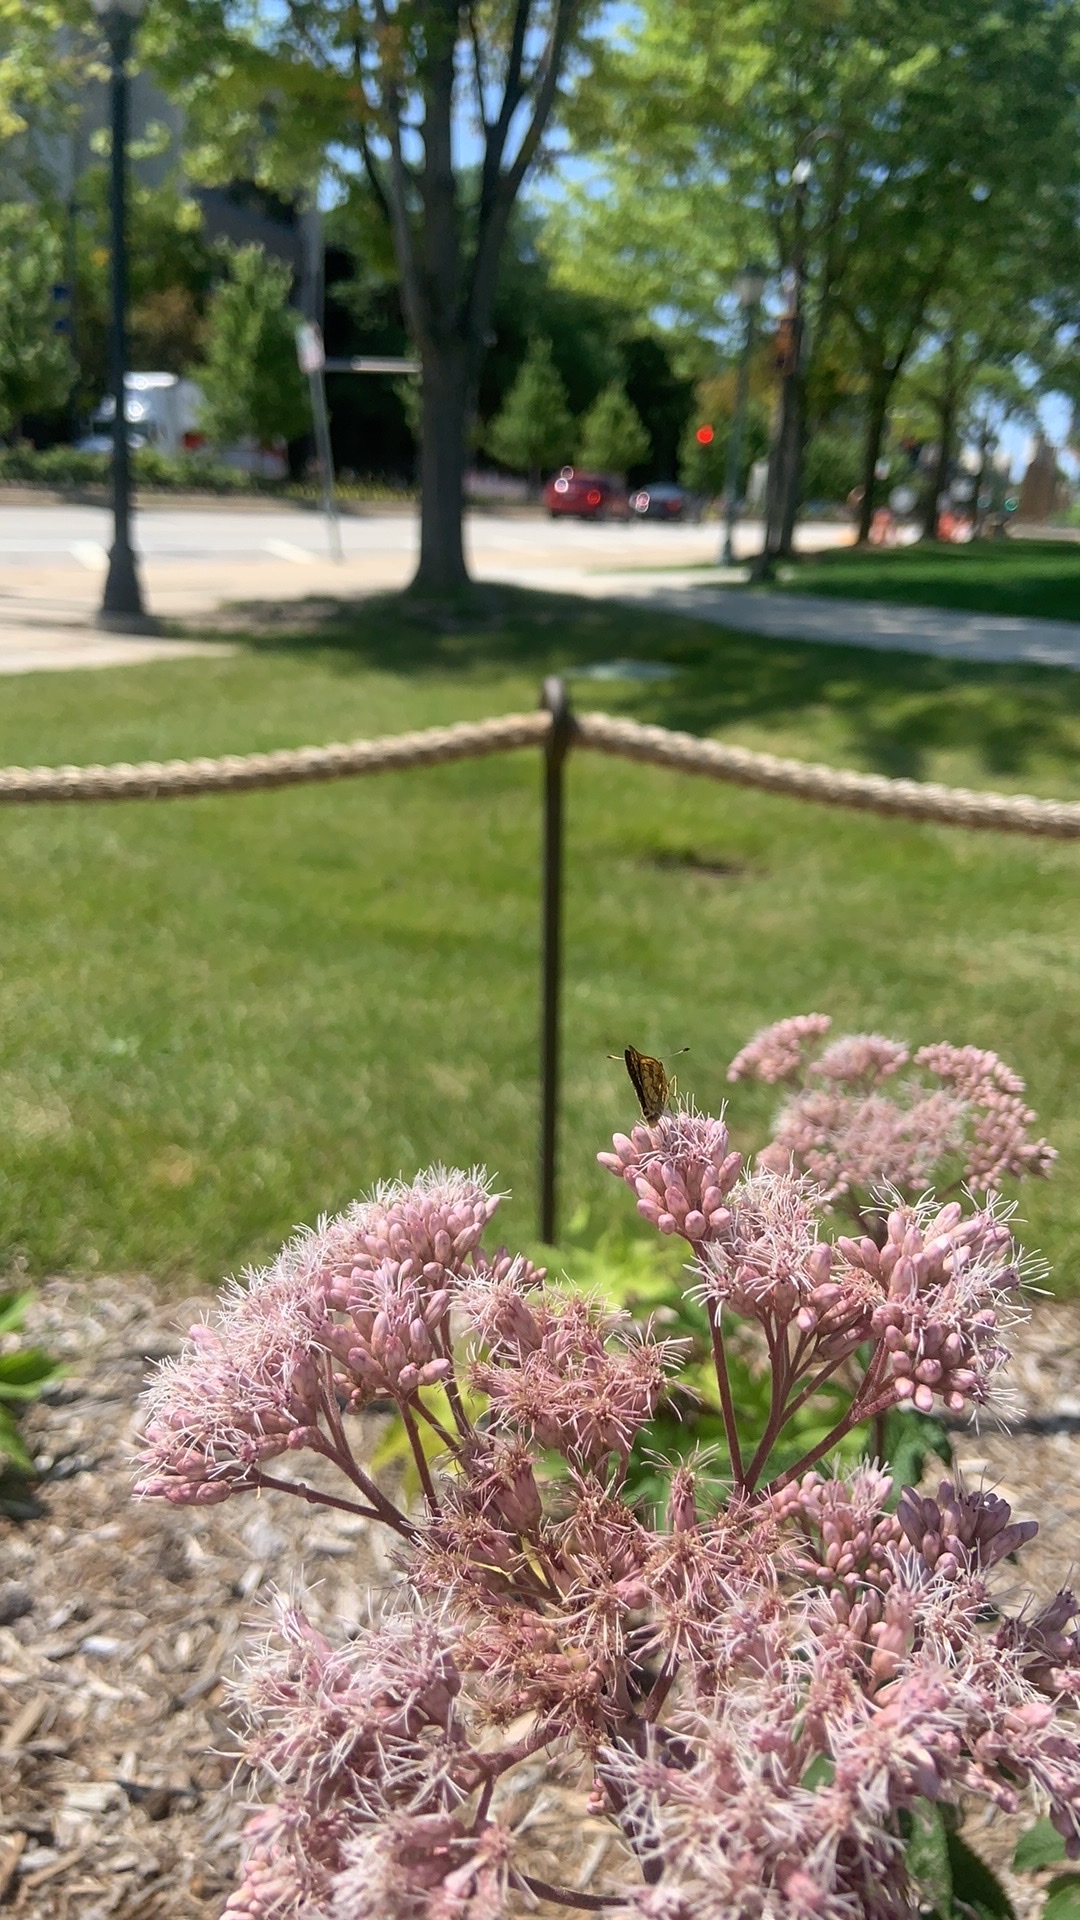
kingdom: Animalia
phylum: Arthropoda
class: Insecta
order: Lepidoptera
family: Hesperiidae
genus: Polites
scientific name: Polites coras
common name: Peck's skipper
